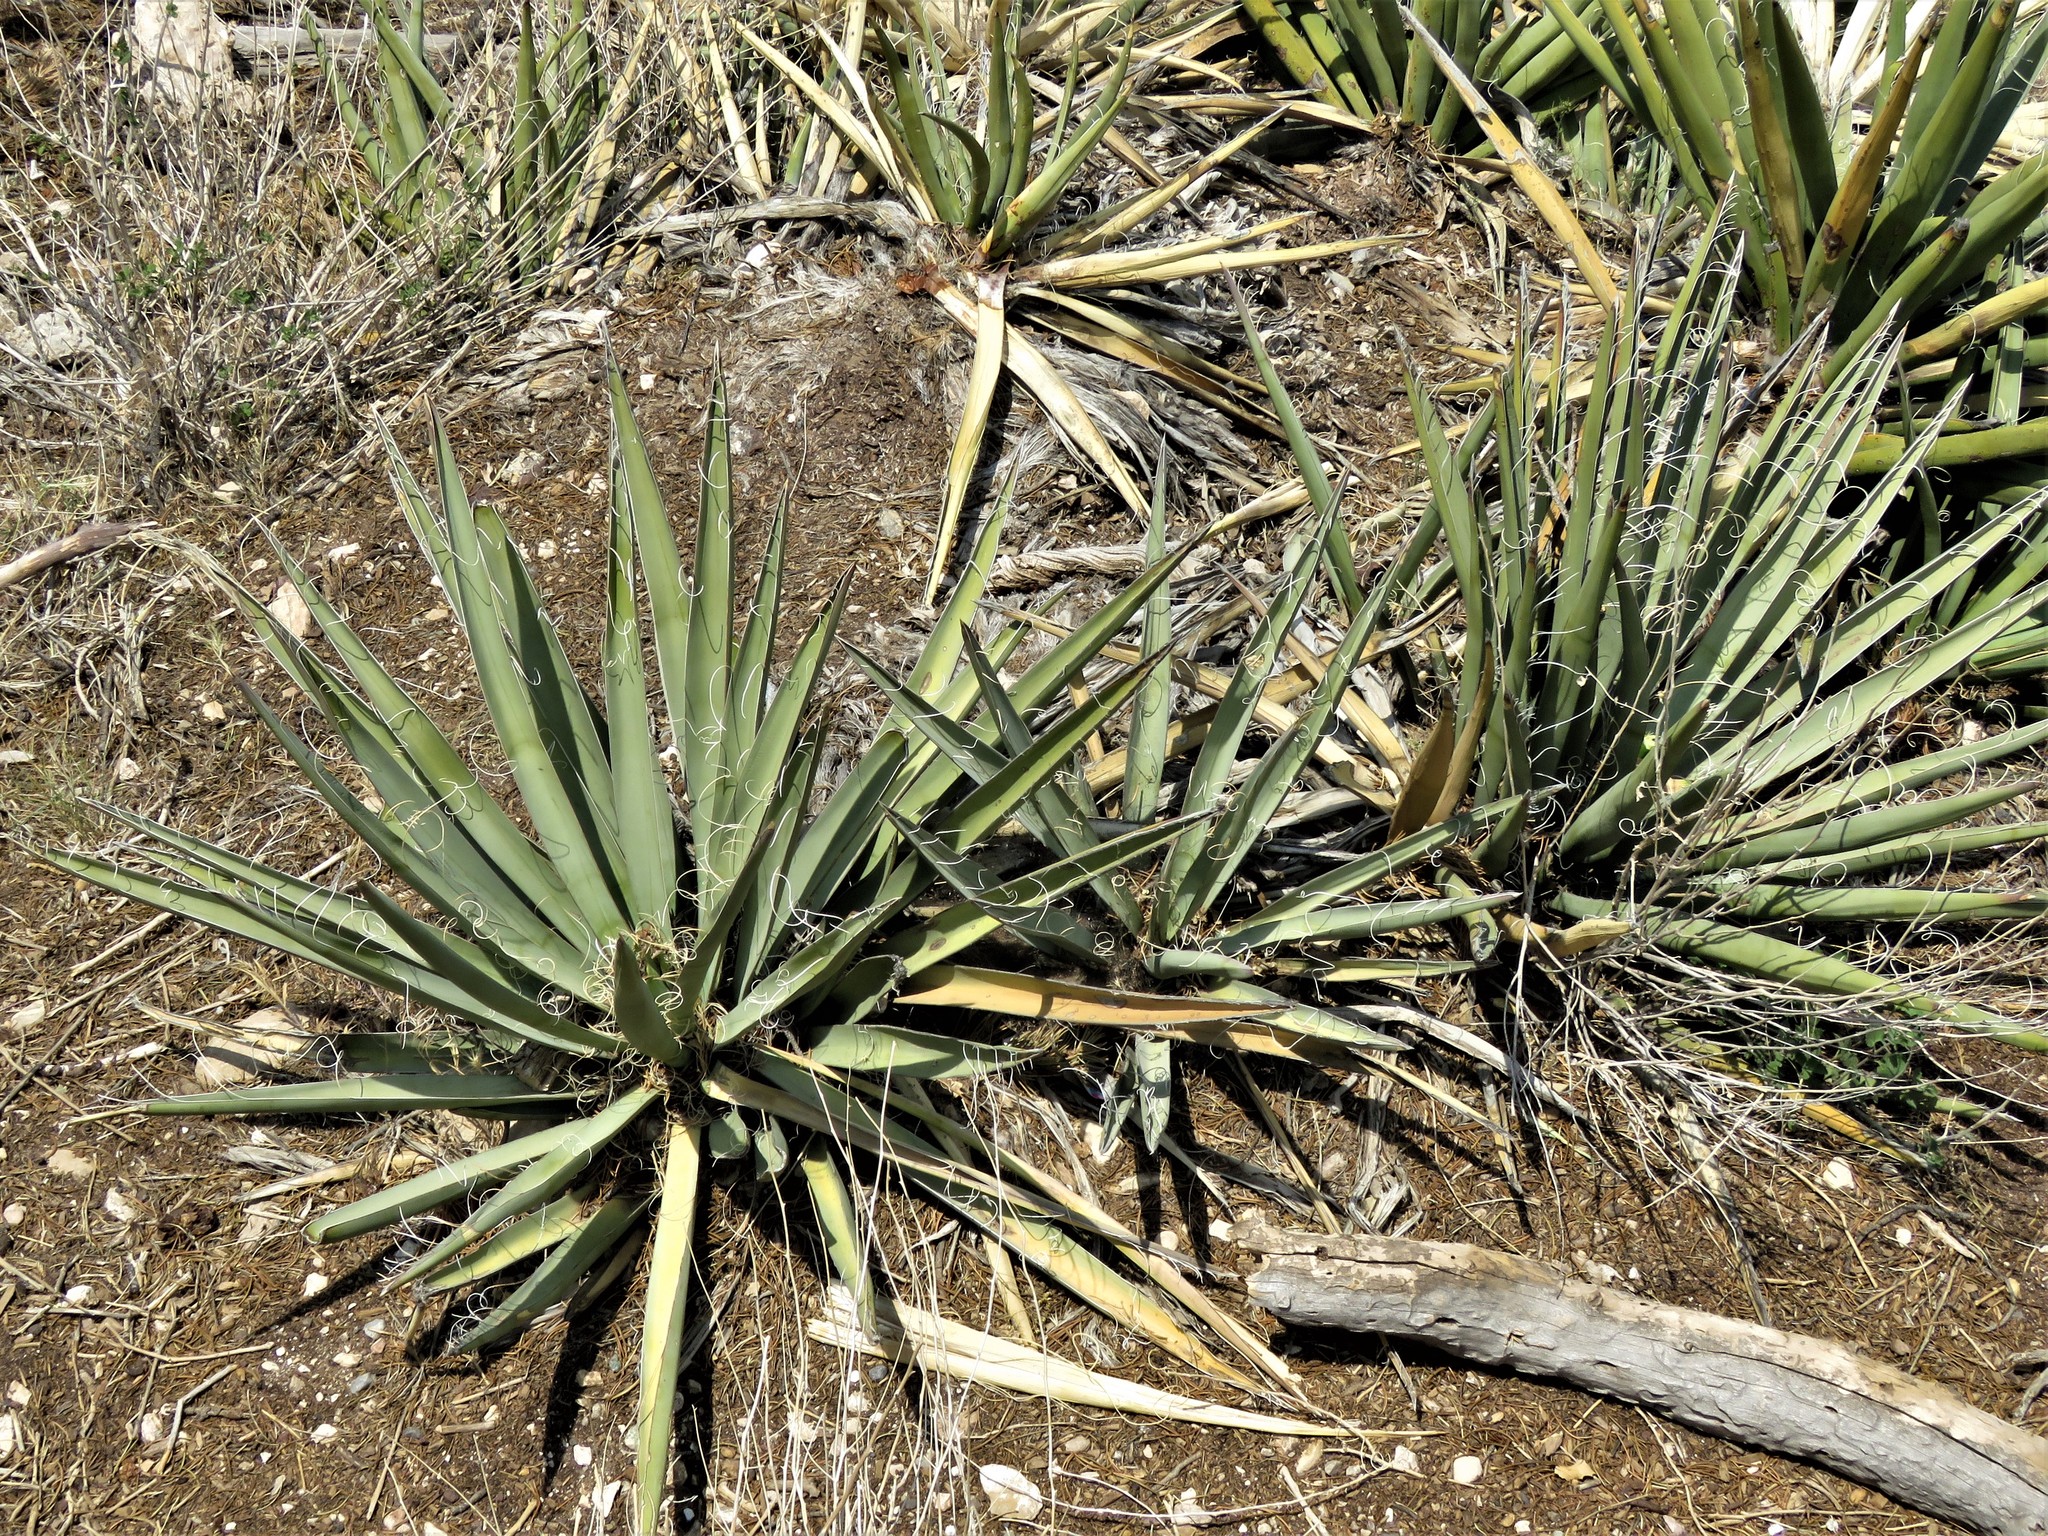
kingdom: Plantae
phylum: Tracheophyta
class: Liliopsida
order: Asparagales
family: Asparagaceae
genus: Yucca
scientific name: Yucca baccata
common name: Banana yucca
